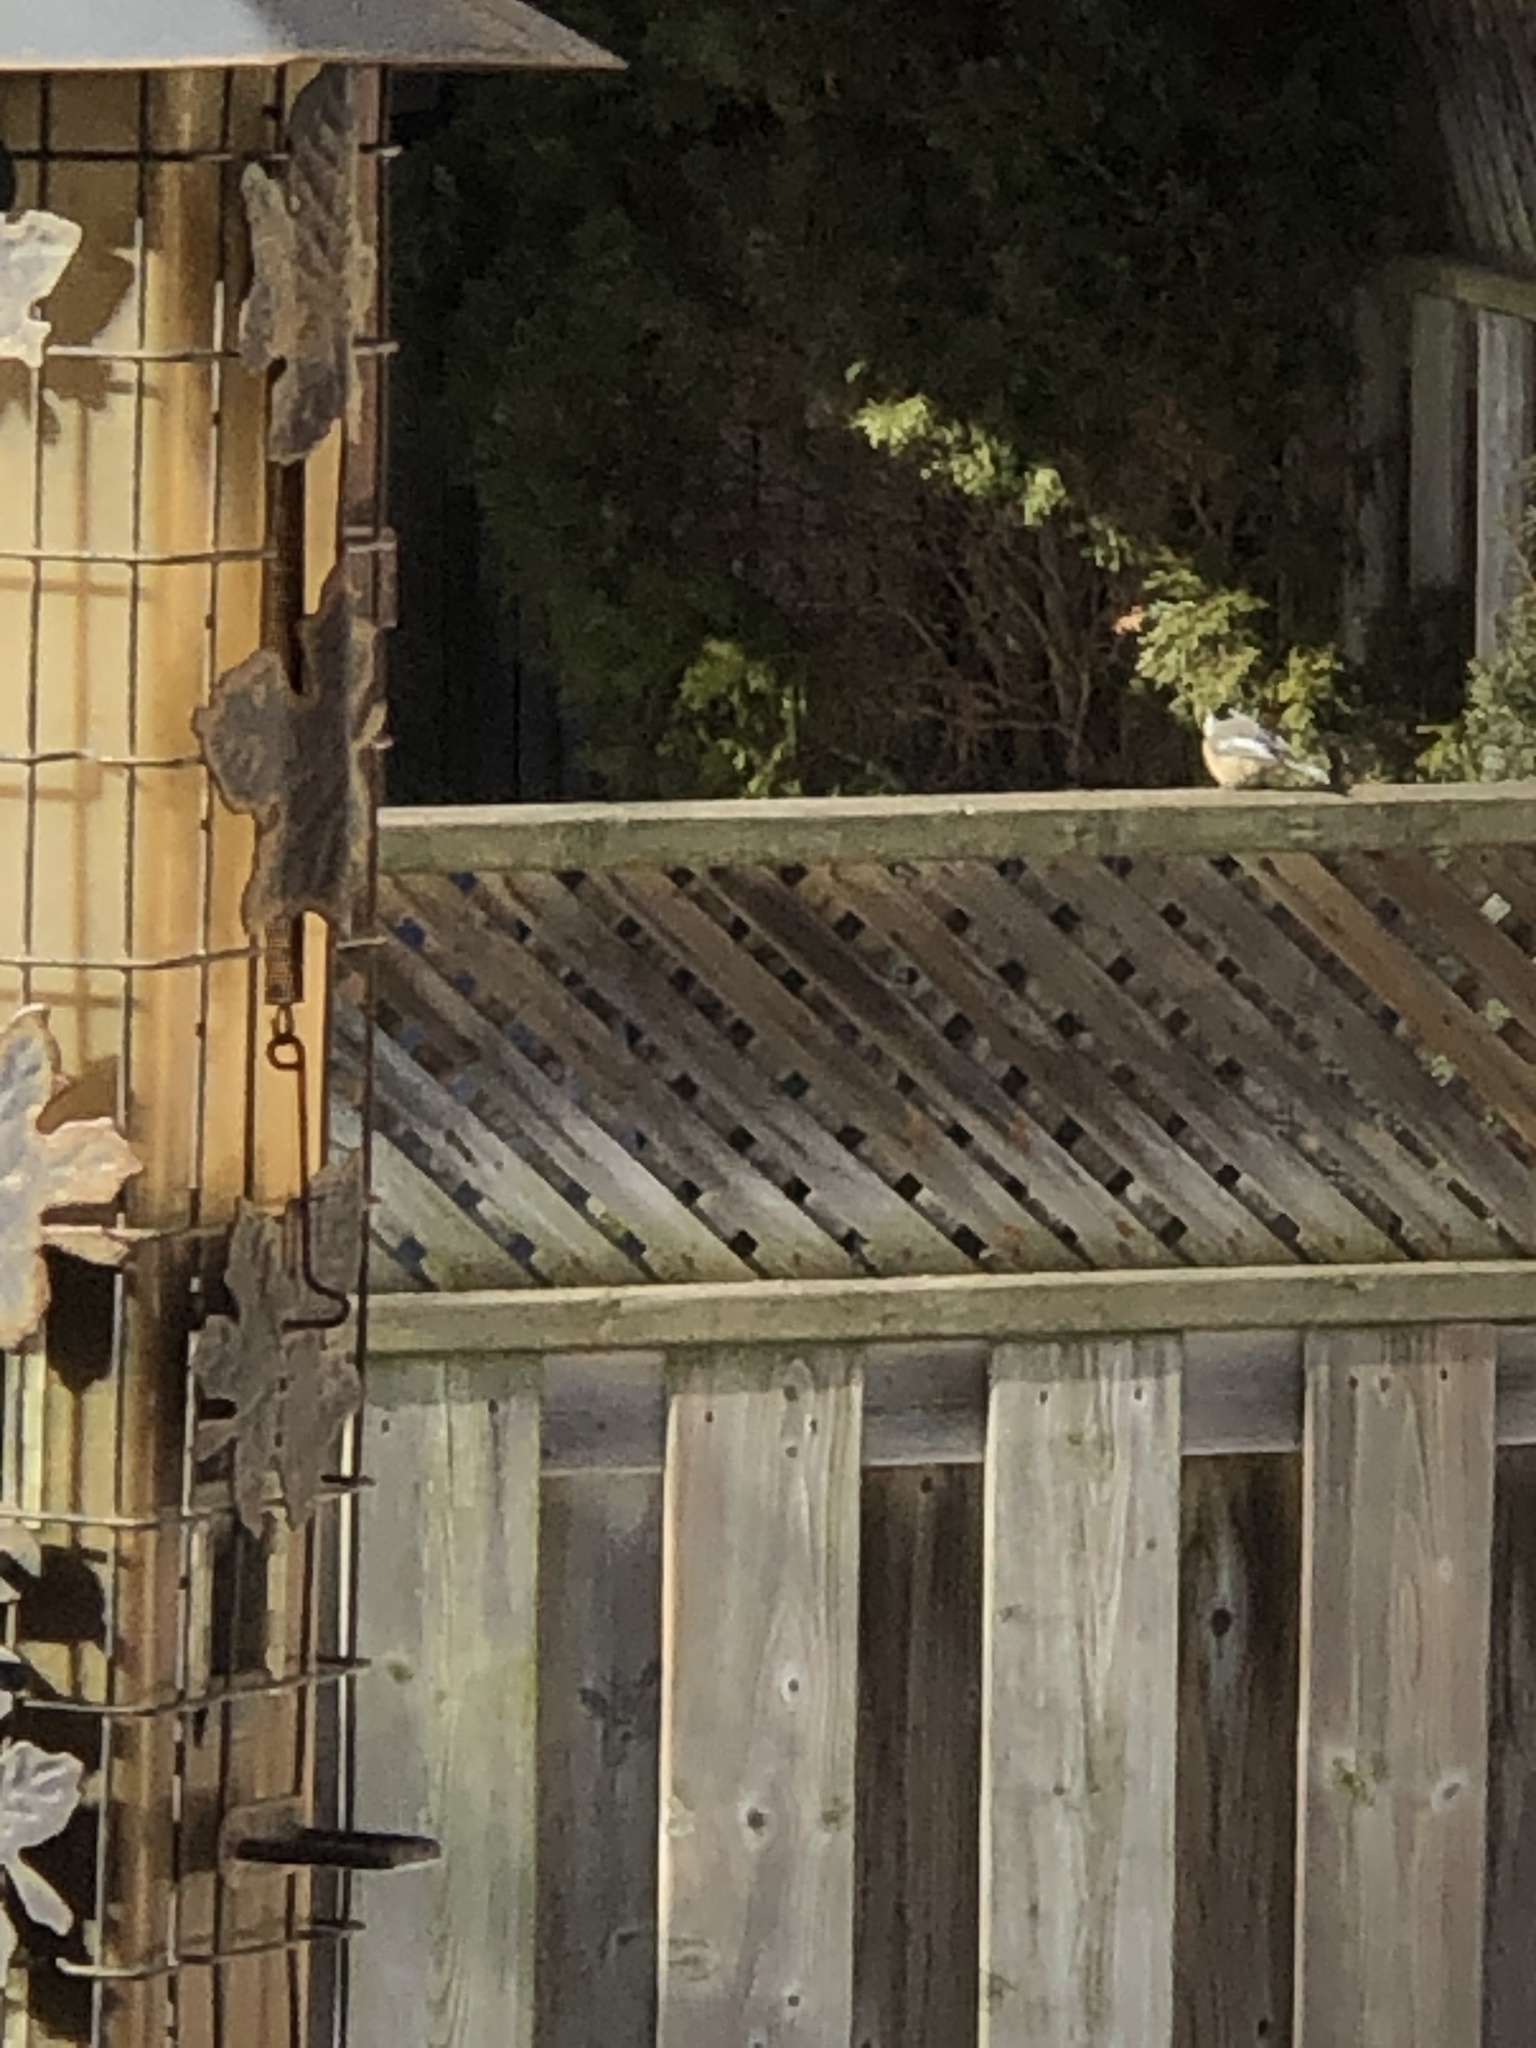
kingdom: Animalia
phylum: Chordata
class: Aves
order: Passeriformes
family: Paridae
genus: Poecile
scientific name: Poecile atricapillus
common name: Black-capped chickadee
